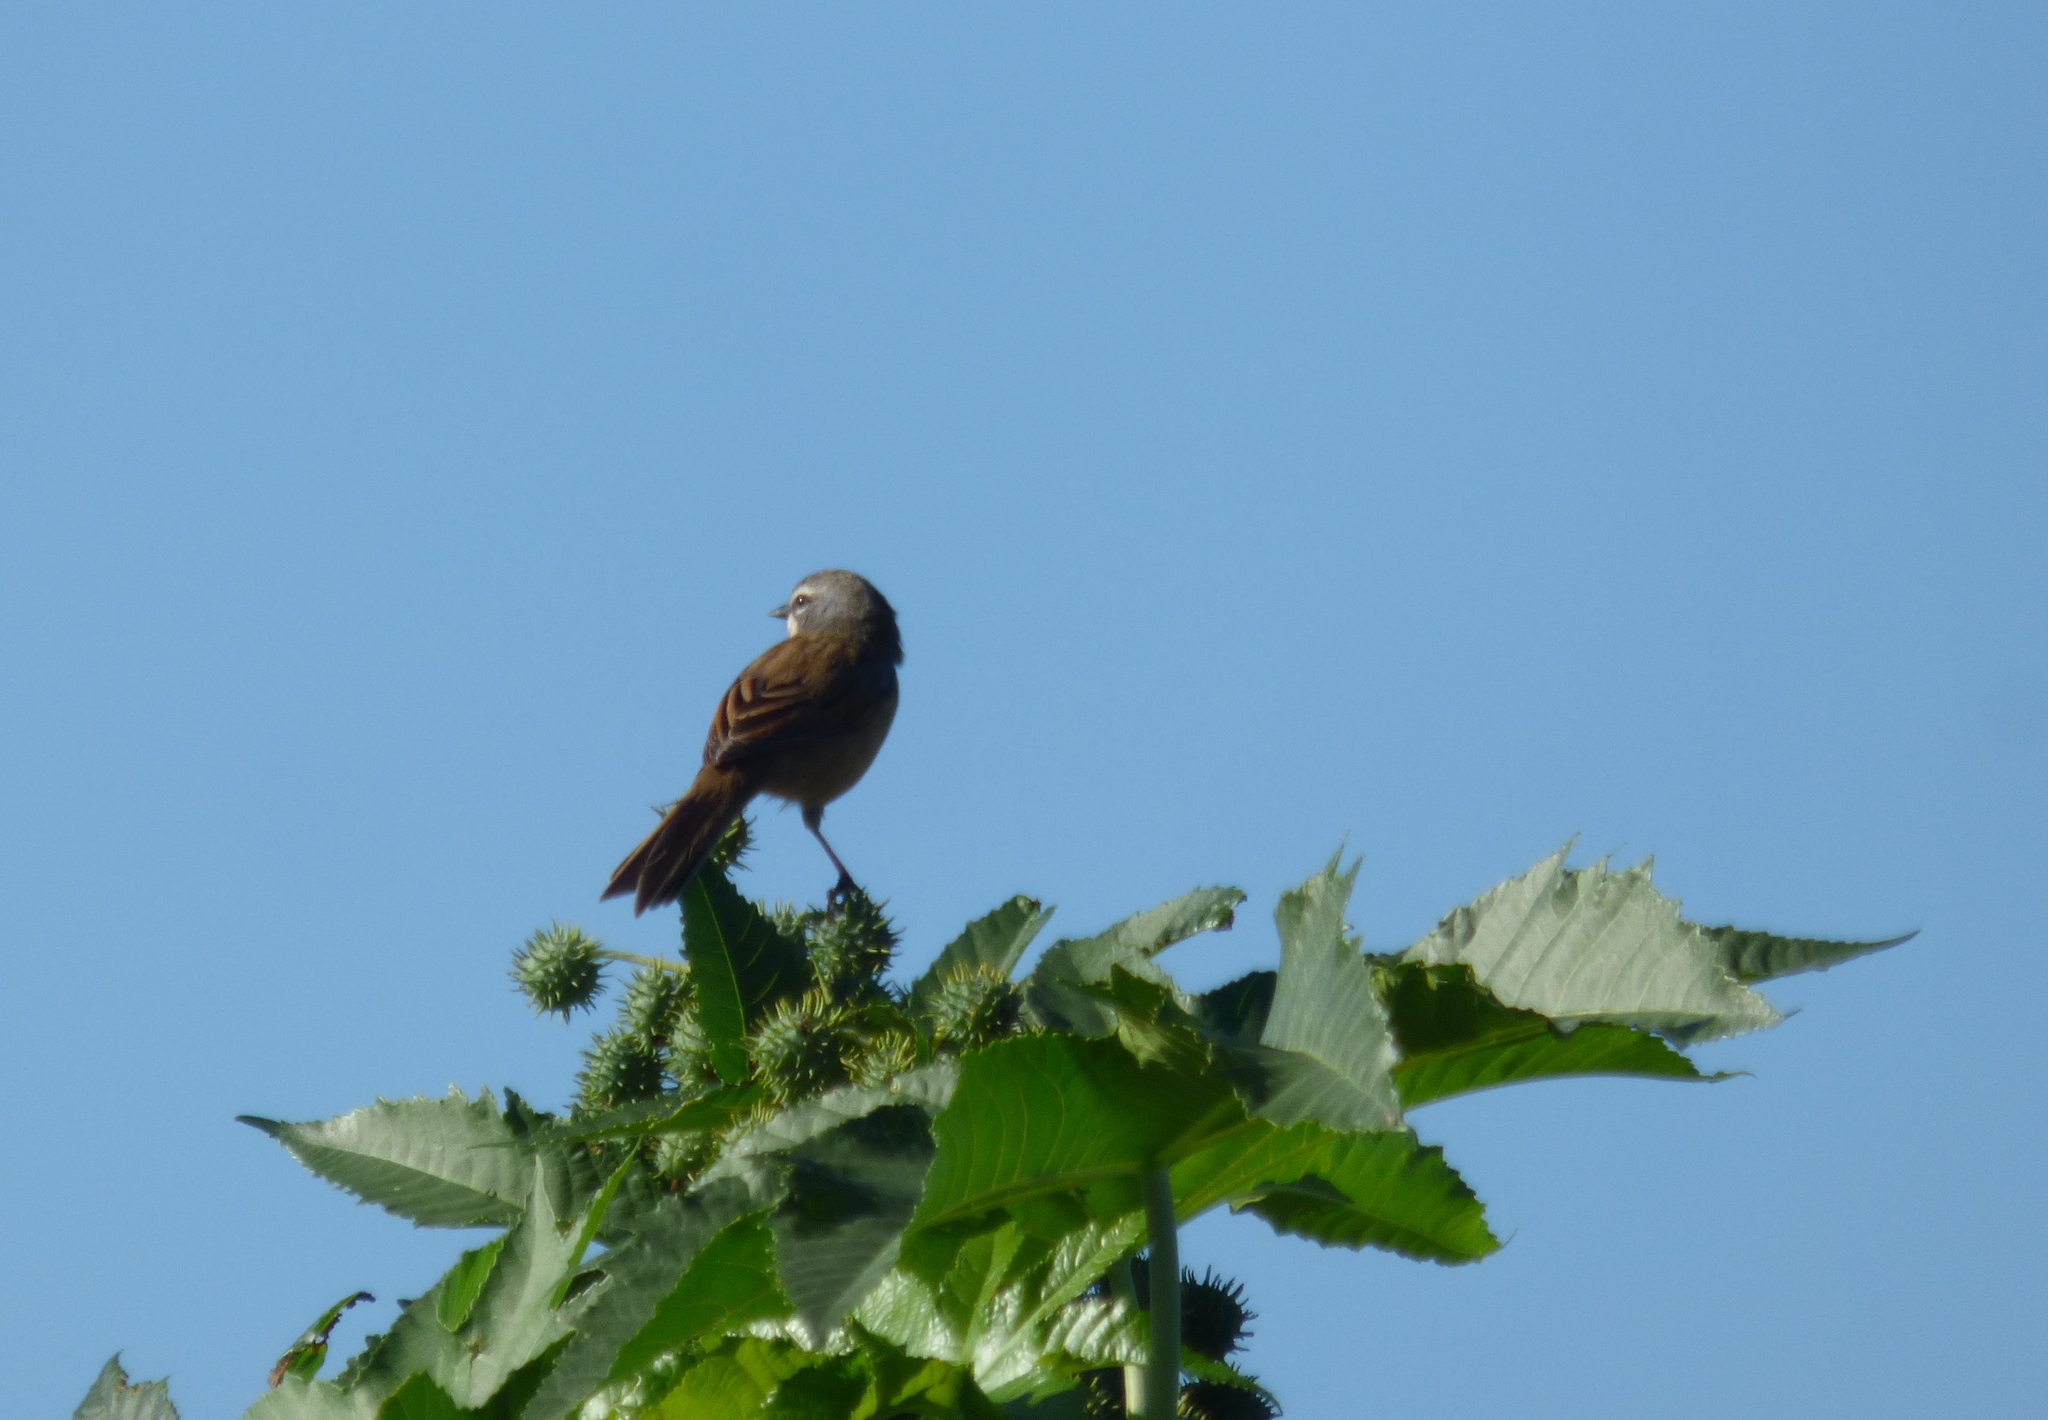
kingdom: Animalia
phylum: Chordata
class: Aves
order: Passeriformes
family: Thraupidae
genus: Donacospiza
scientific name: Donacospiza albifrons
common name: Long-tailed reed finch
